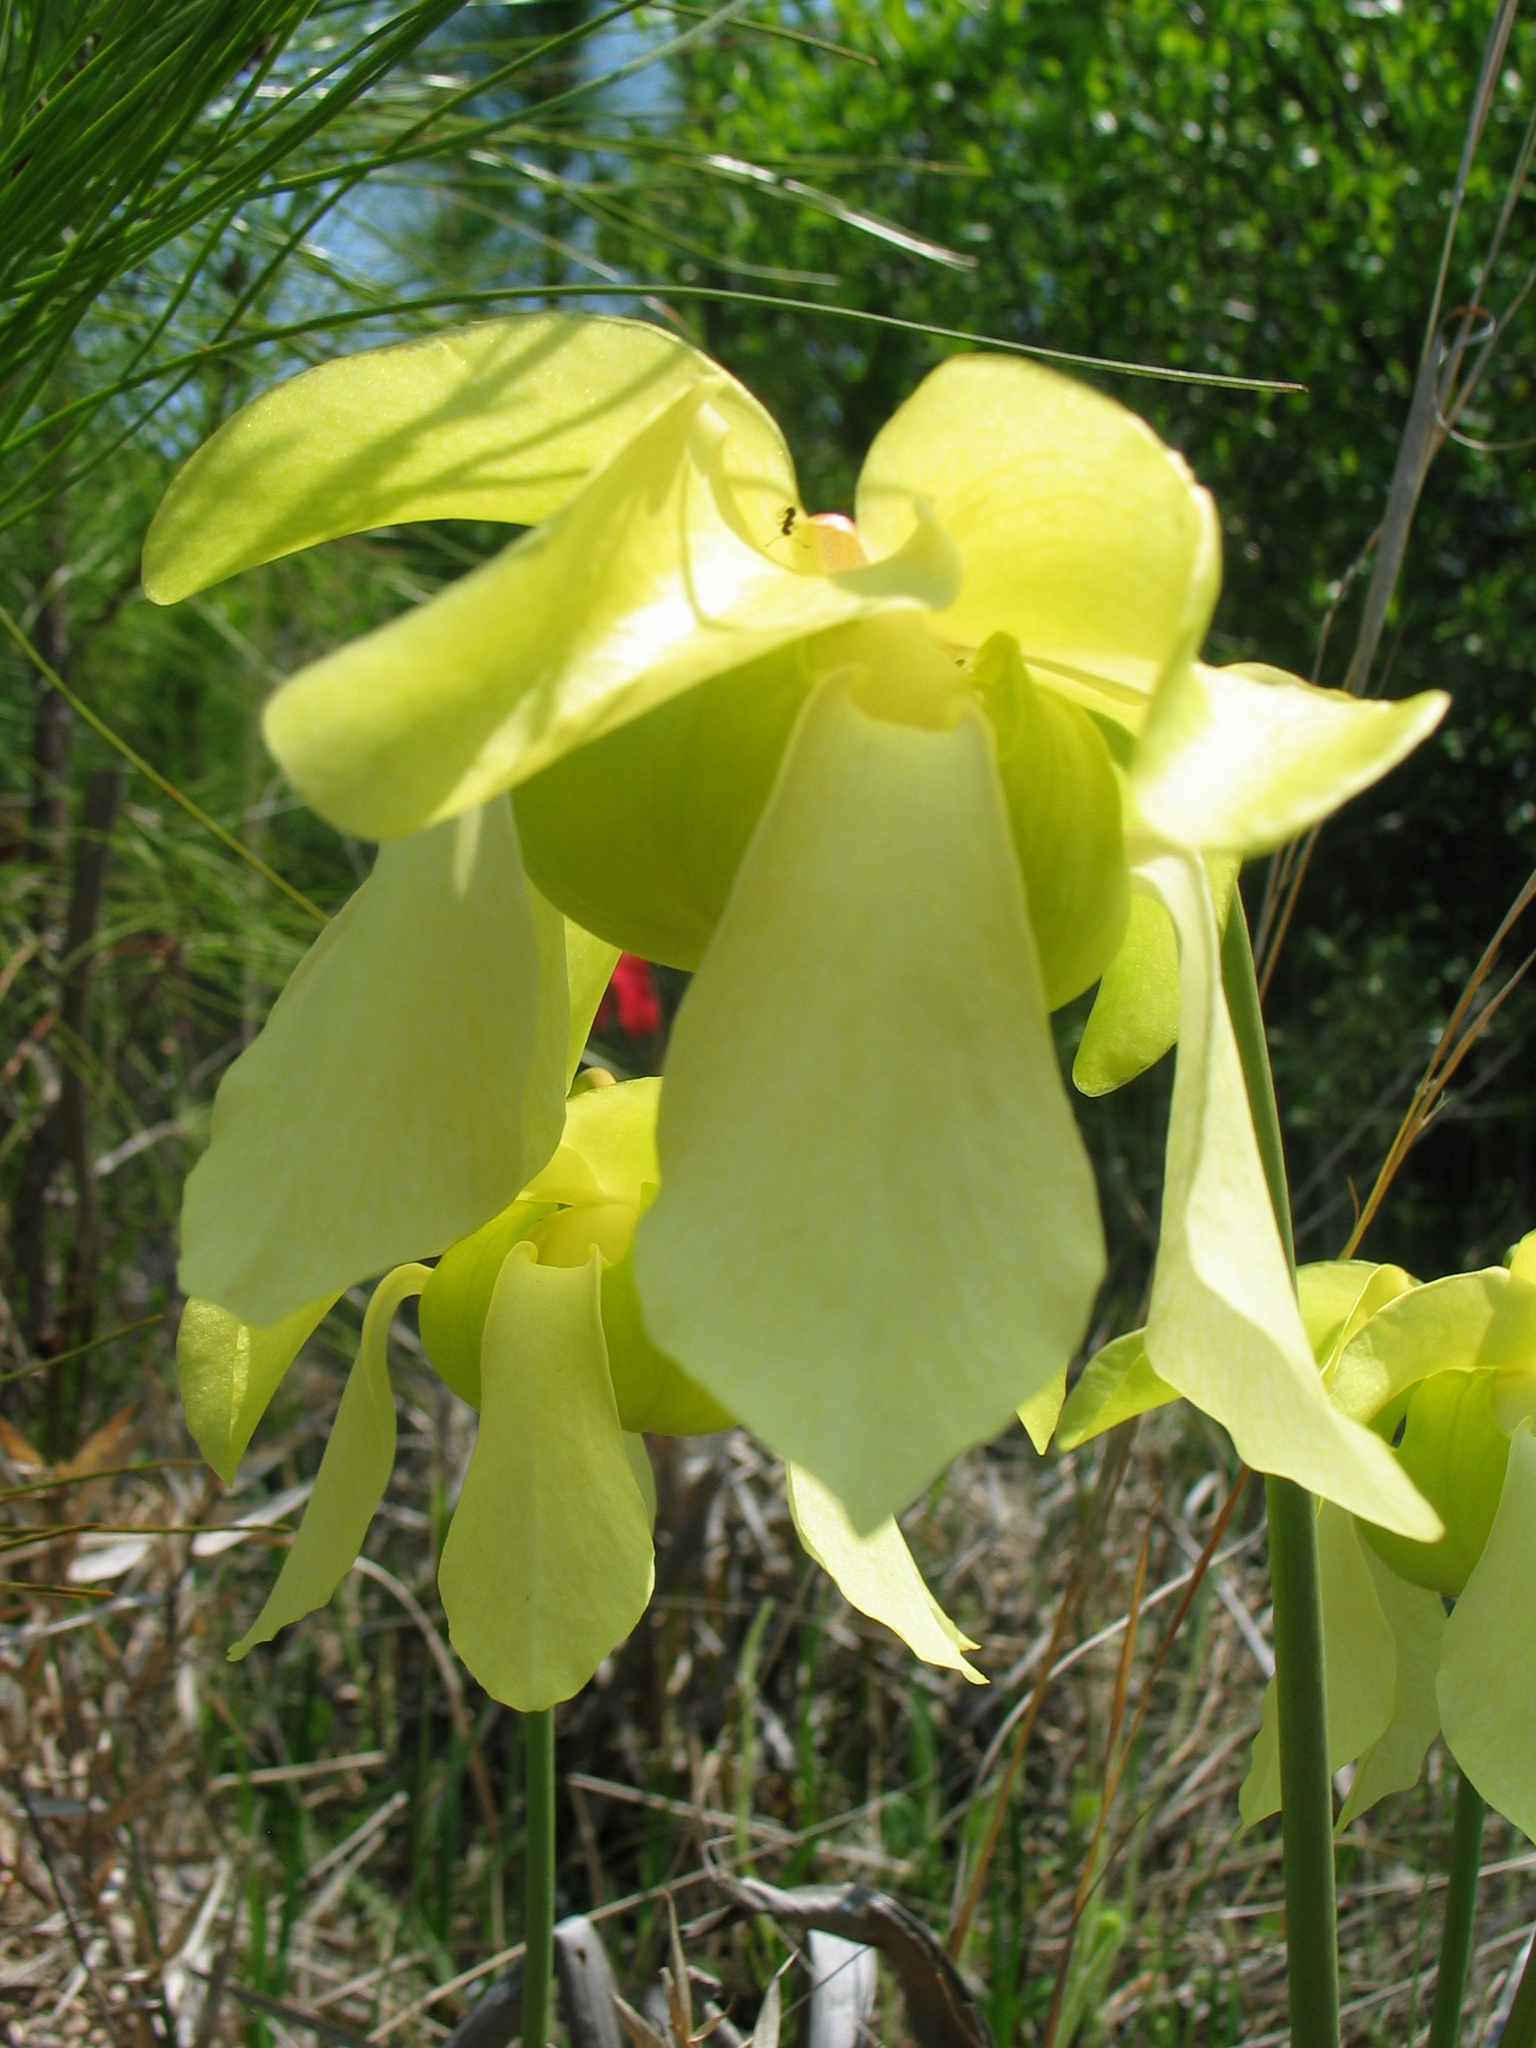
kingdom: Plantae
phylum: Tracheophyta
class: Magnoliopsida
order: Ericales
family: Sarraceniaceae
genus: Sarracenia
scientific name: Sarracenia alata
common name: Yellow trumpets
